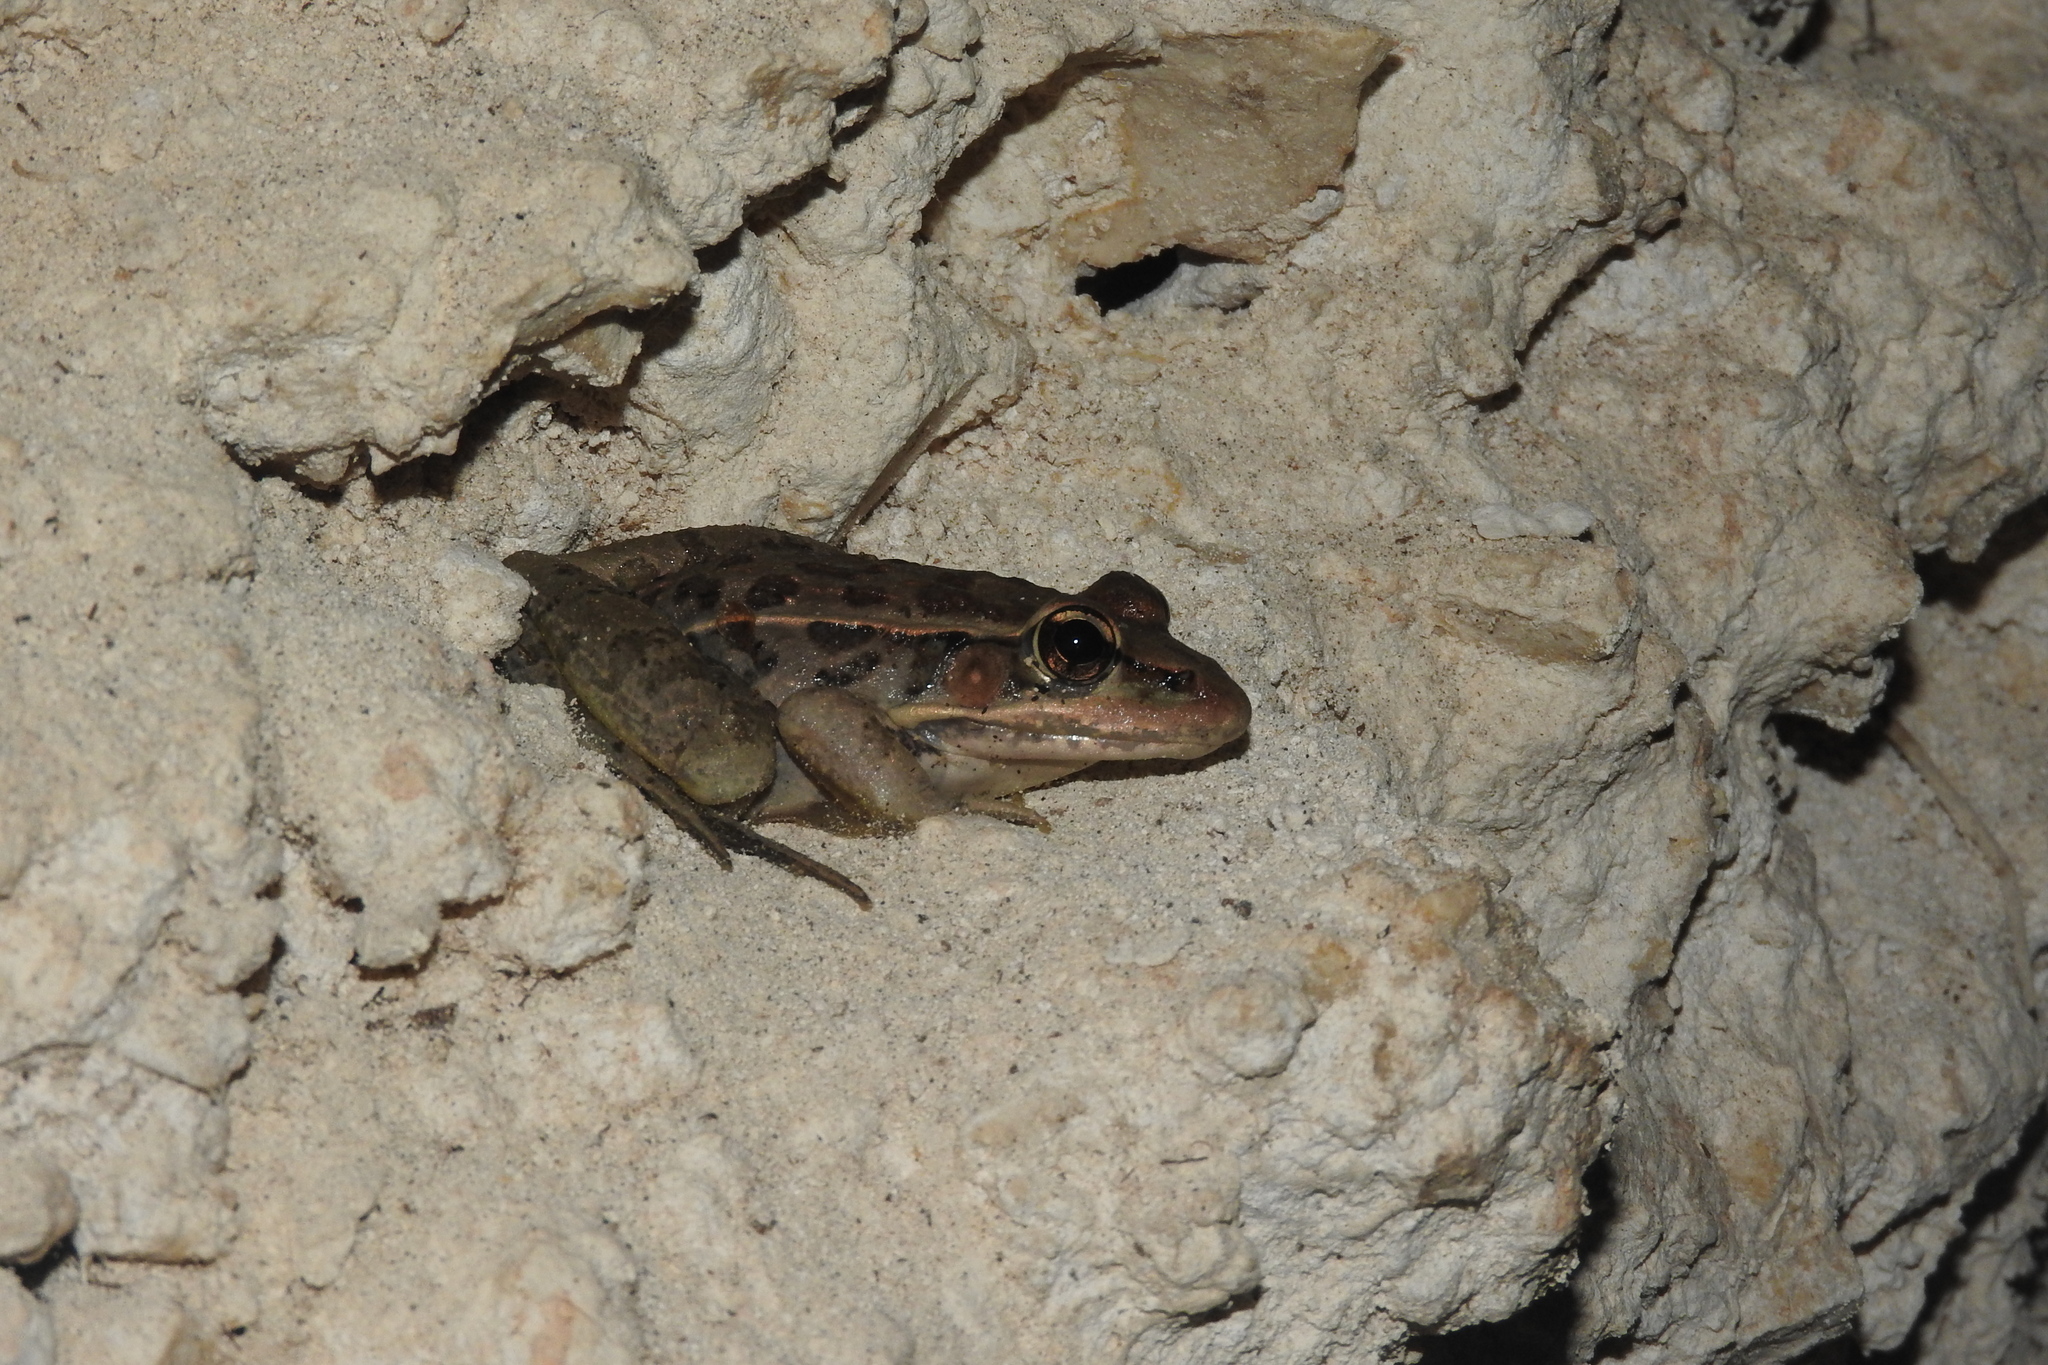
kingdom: Animalia
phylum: Chordata
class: Amphibia
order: Anura
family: Ranidae
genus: Lithobates
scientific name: Lithobates brownorum
